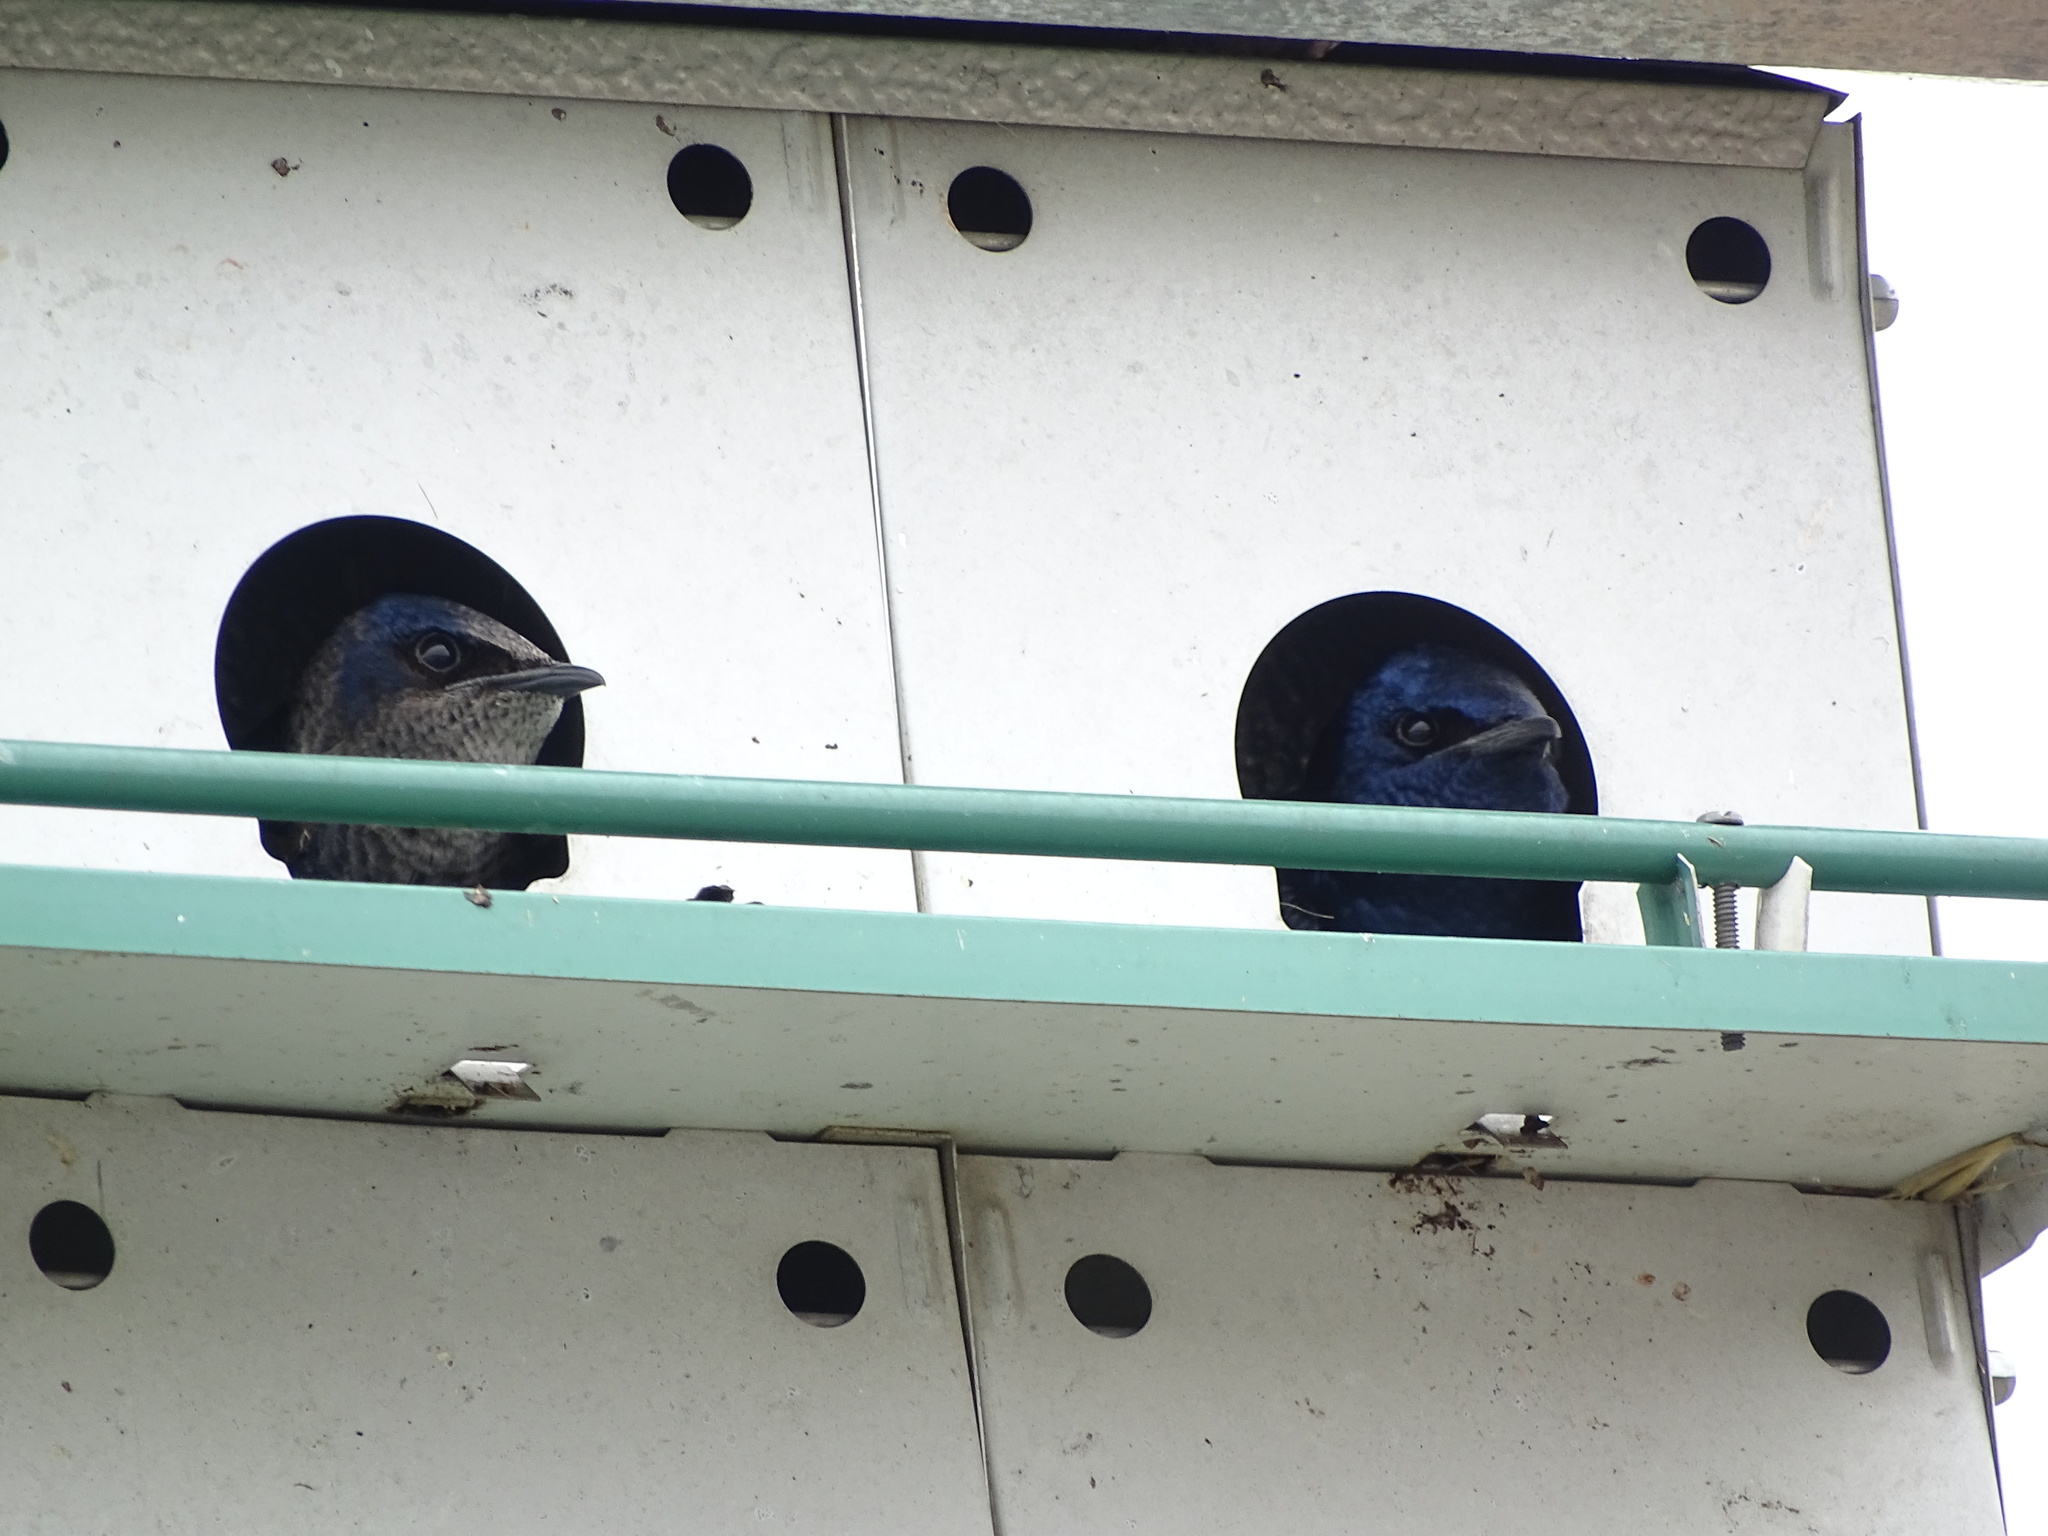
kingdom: Animalia
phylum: Chordata
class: Aves
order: Passeriformes
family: Hirundinidae
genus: Progne
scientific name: Progne subis
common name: Purple martin
